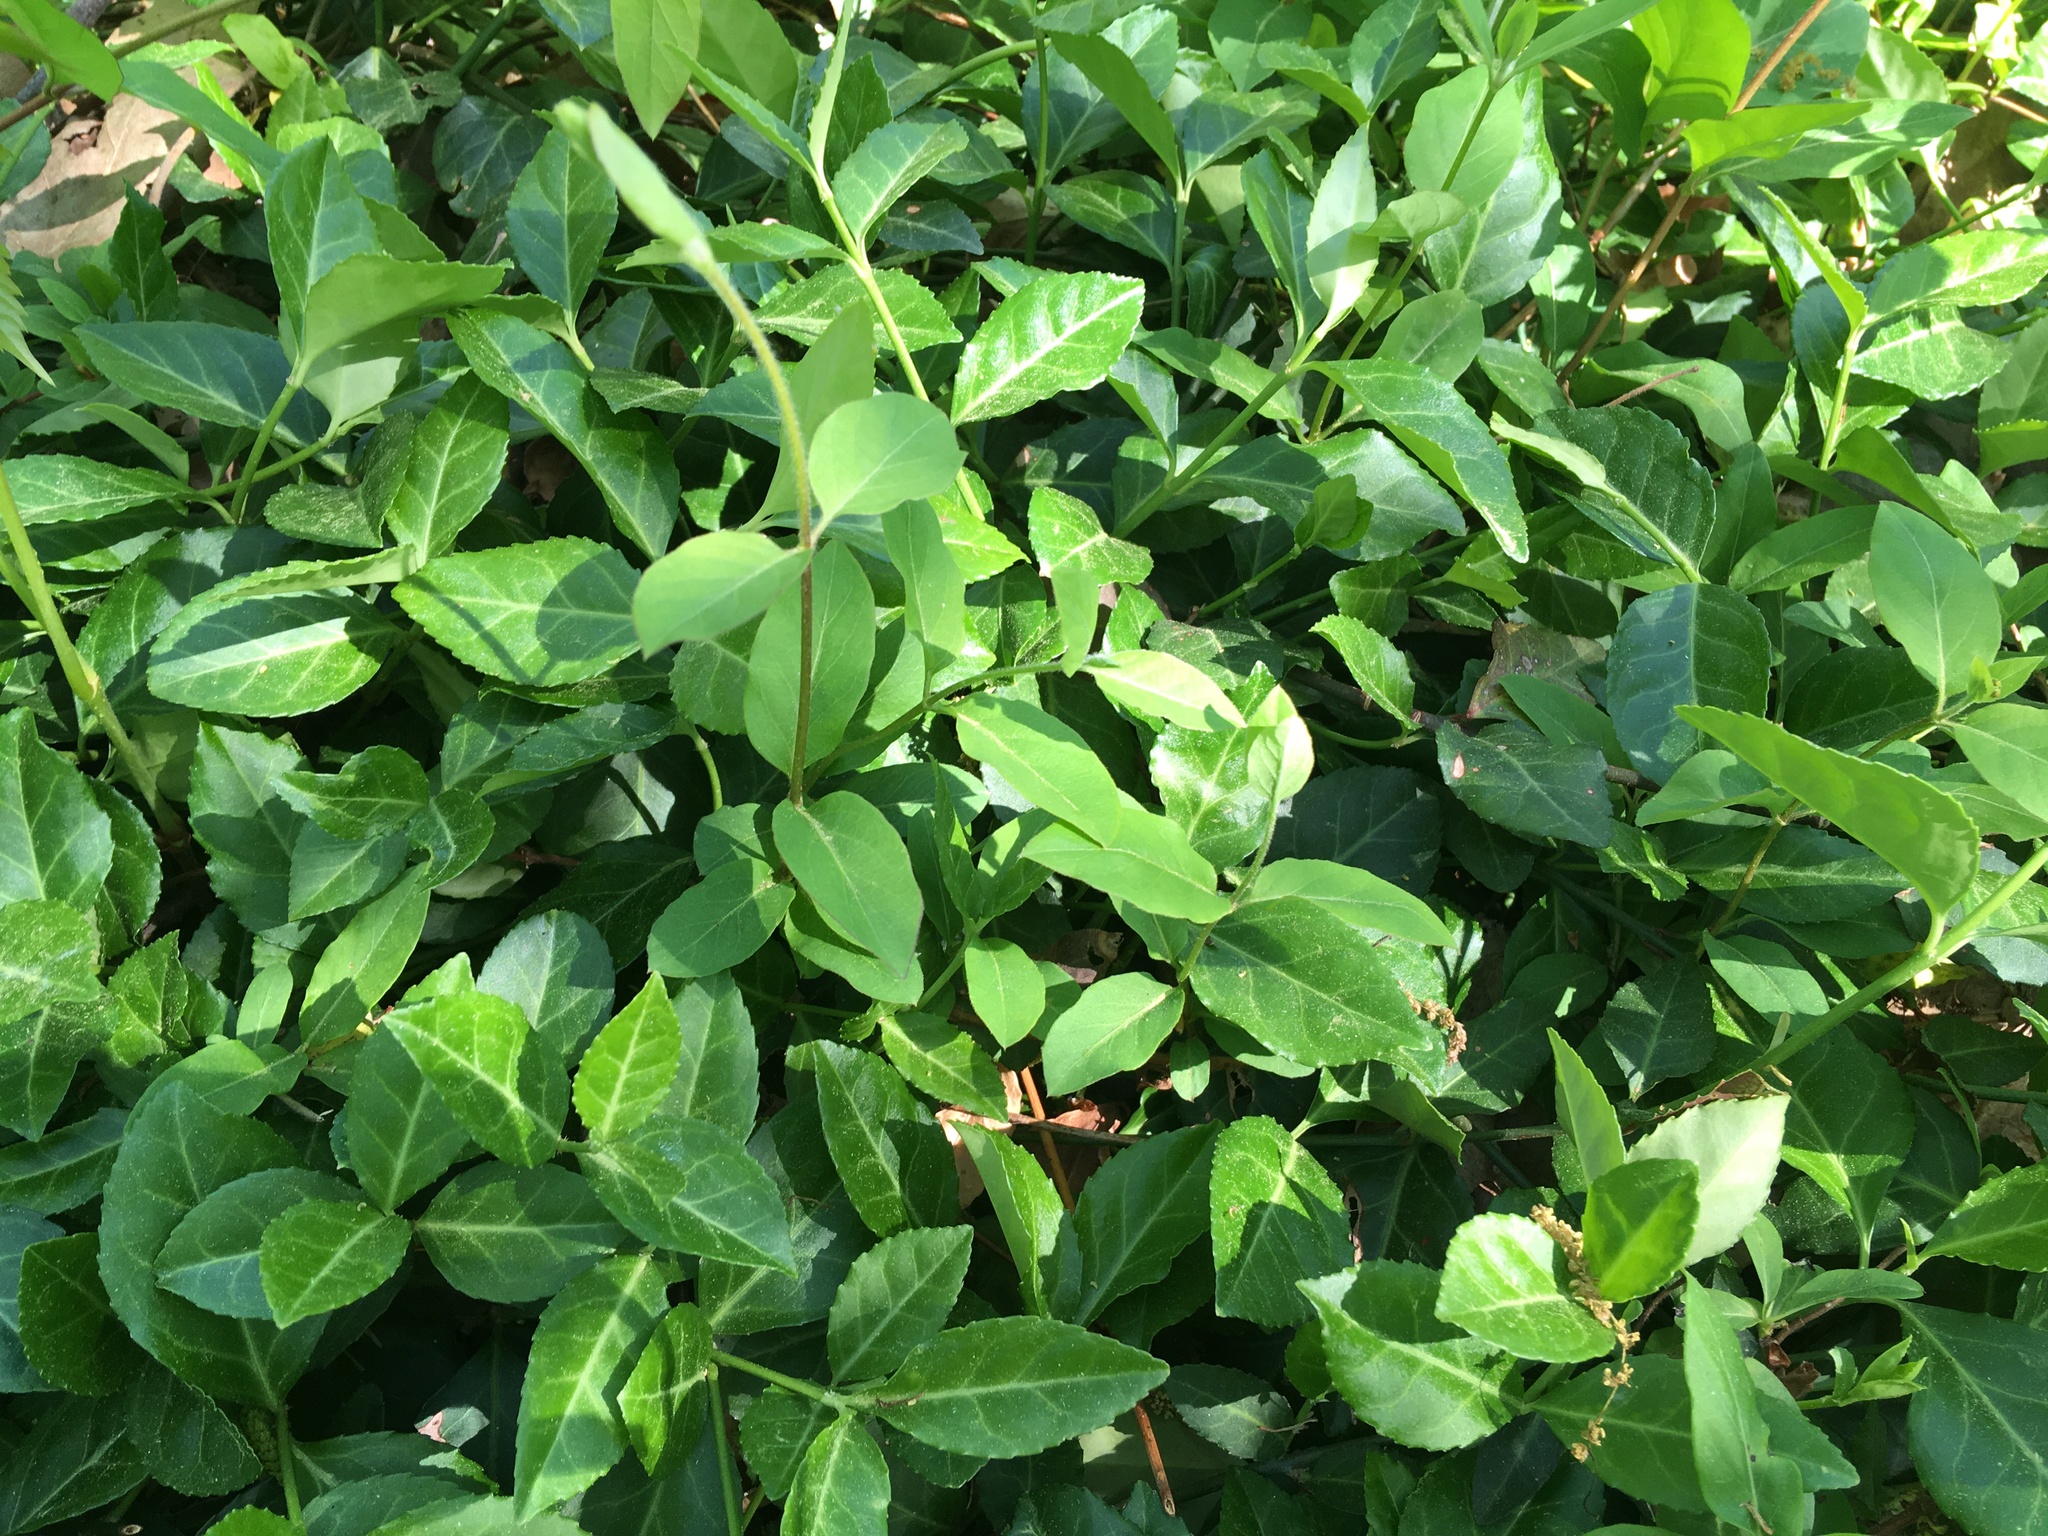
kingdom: Plantae
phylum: Tracheophyta
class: Magnoliopsida
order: Celastrales
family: Celastraceae
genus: Euonymus
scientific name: Euonymus fortunei
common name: Climbing euonymus
